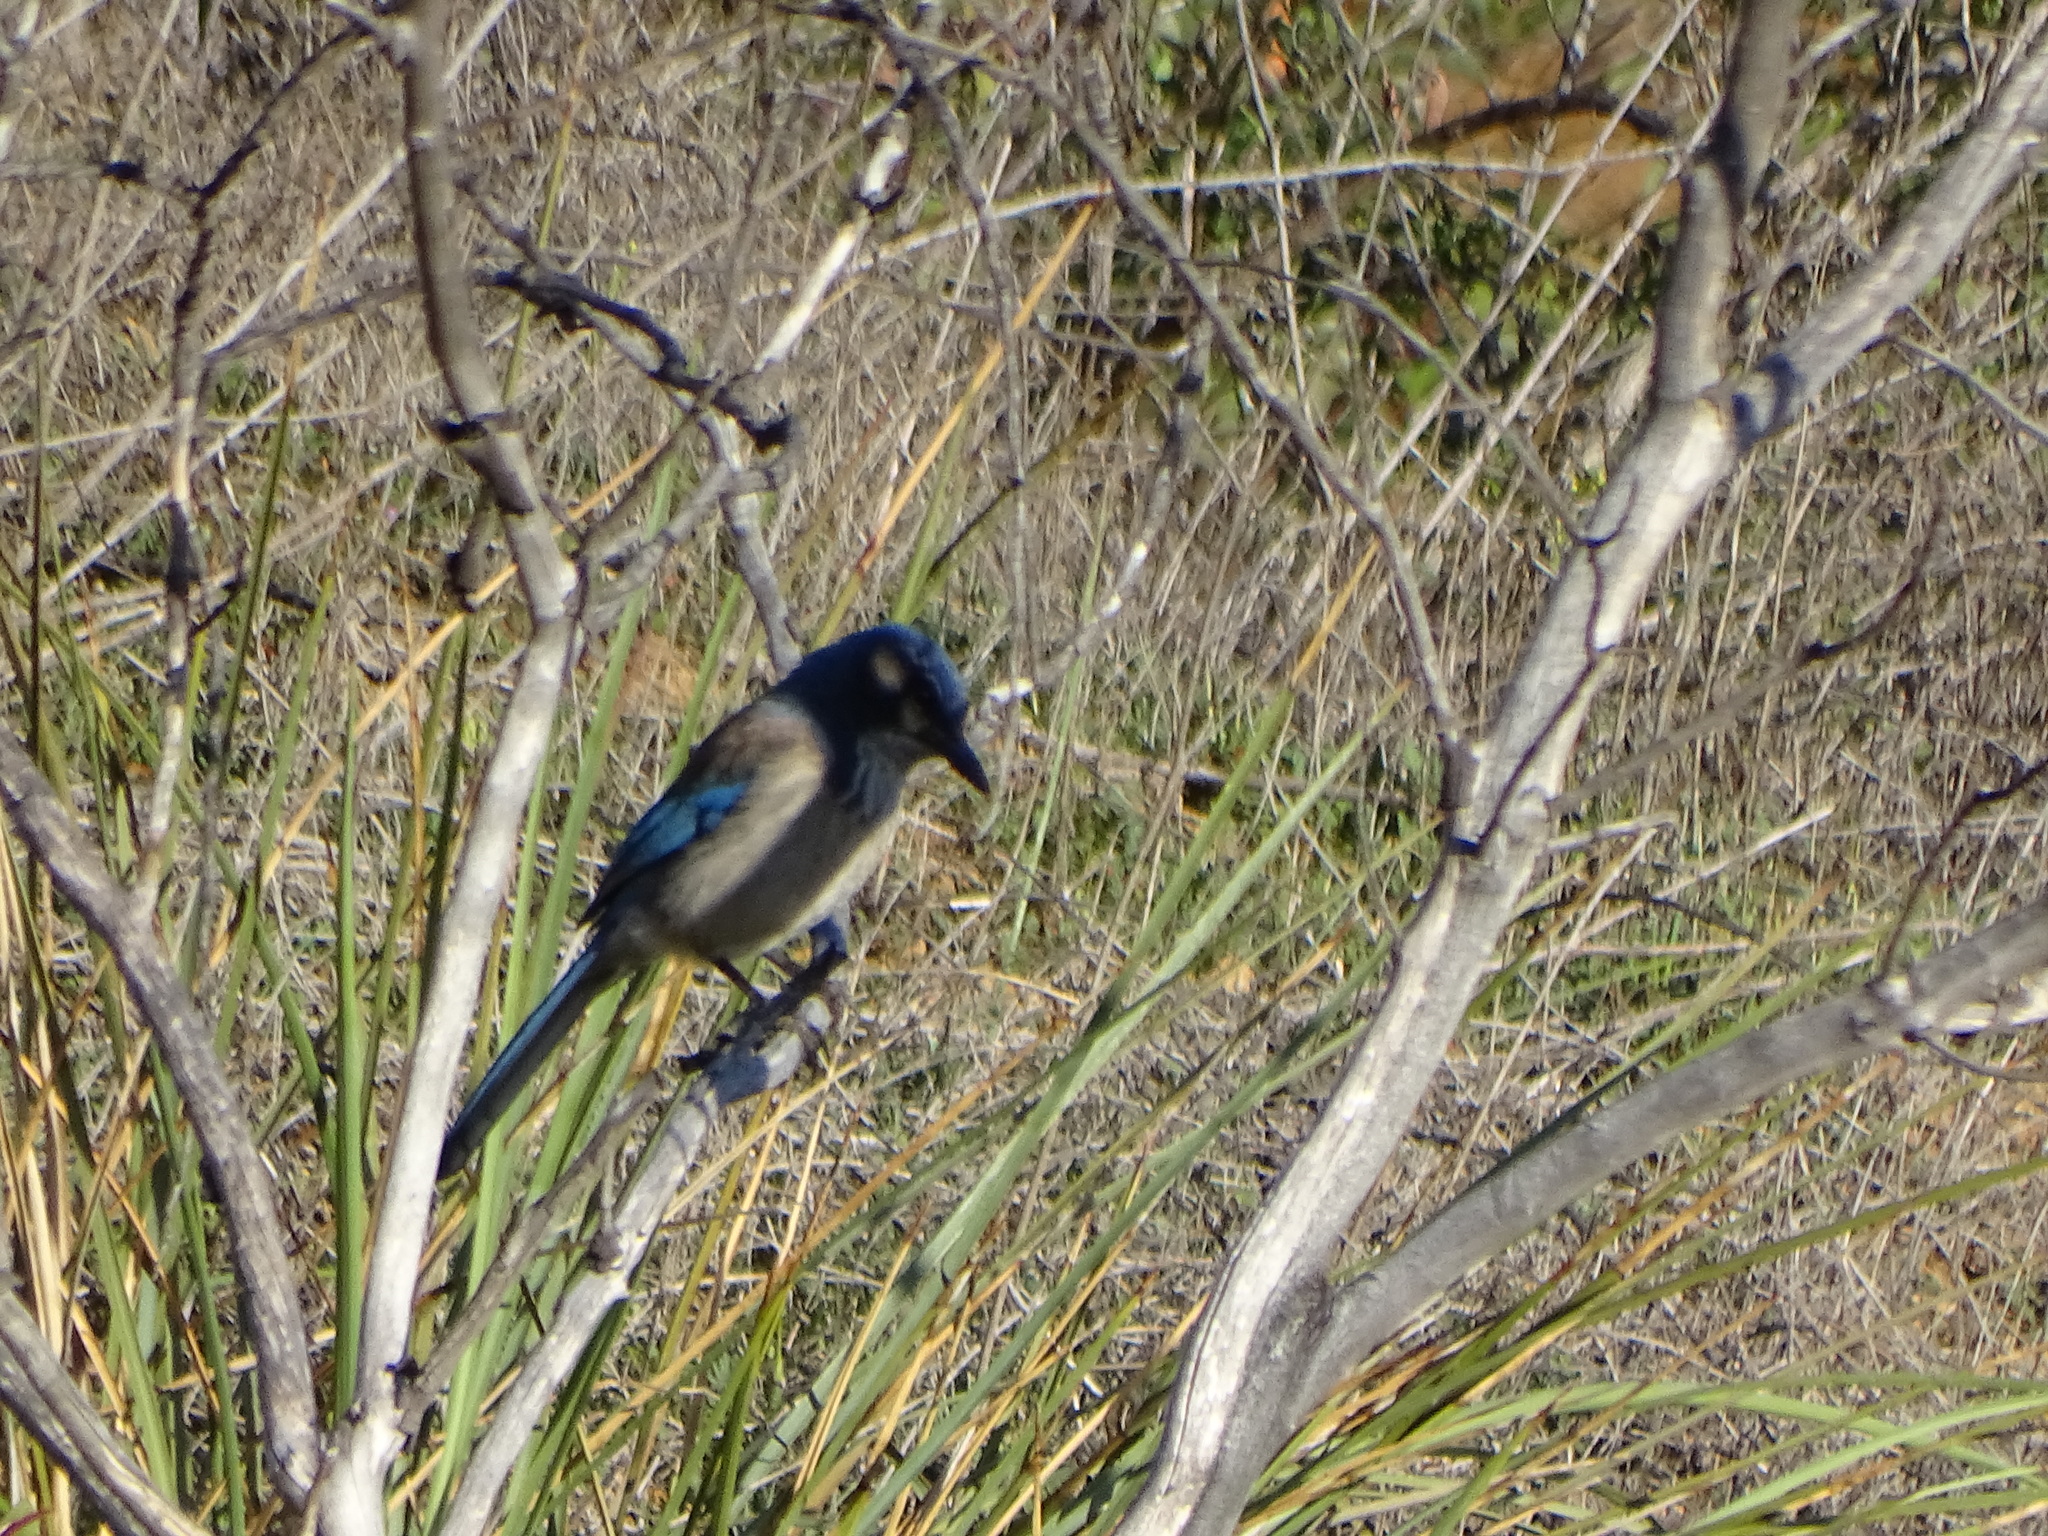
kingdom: Animalia
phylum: Chordata
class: Aves
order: Passeriformes
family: Corvidae
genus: Aphelocoma
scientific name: Aphelocoma californica
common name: California scrub-jay
